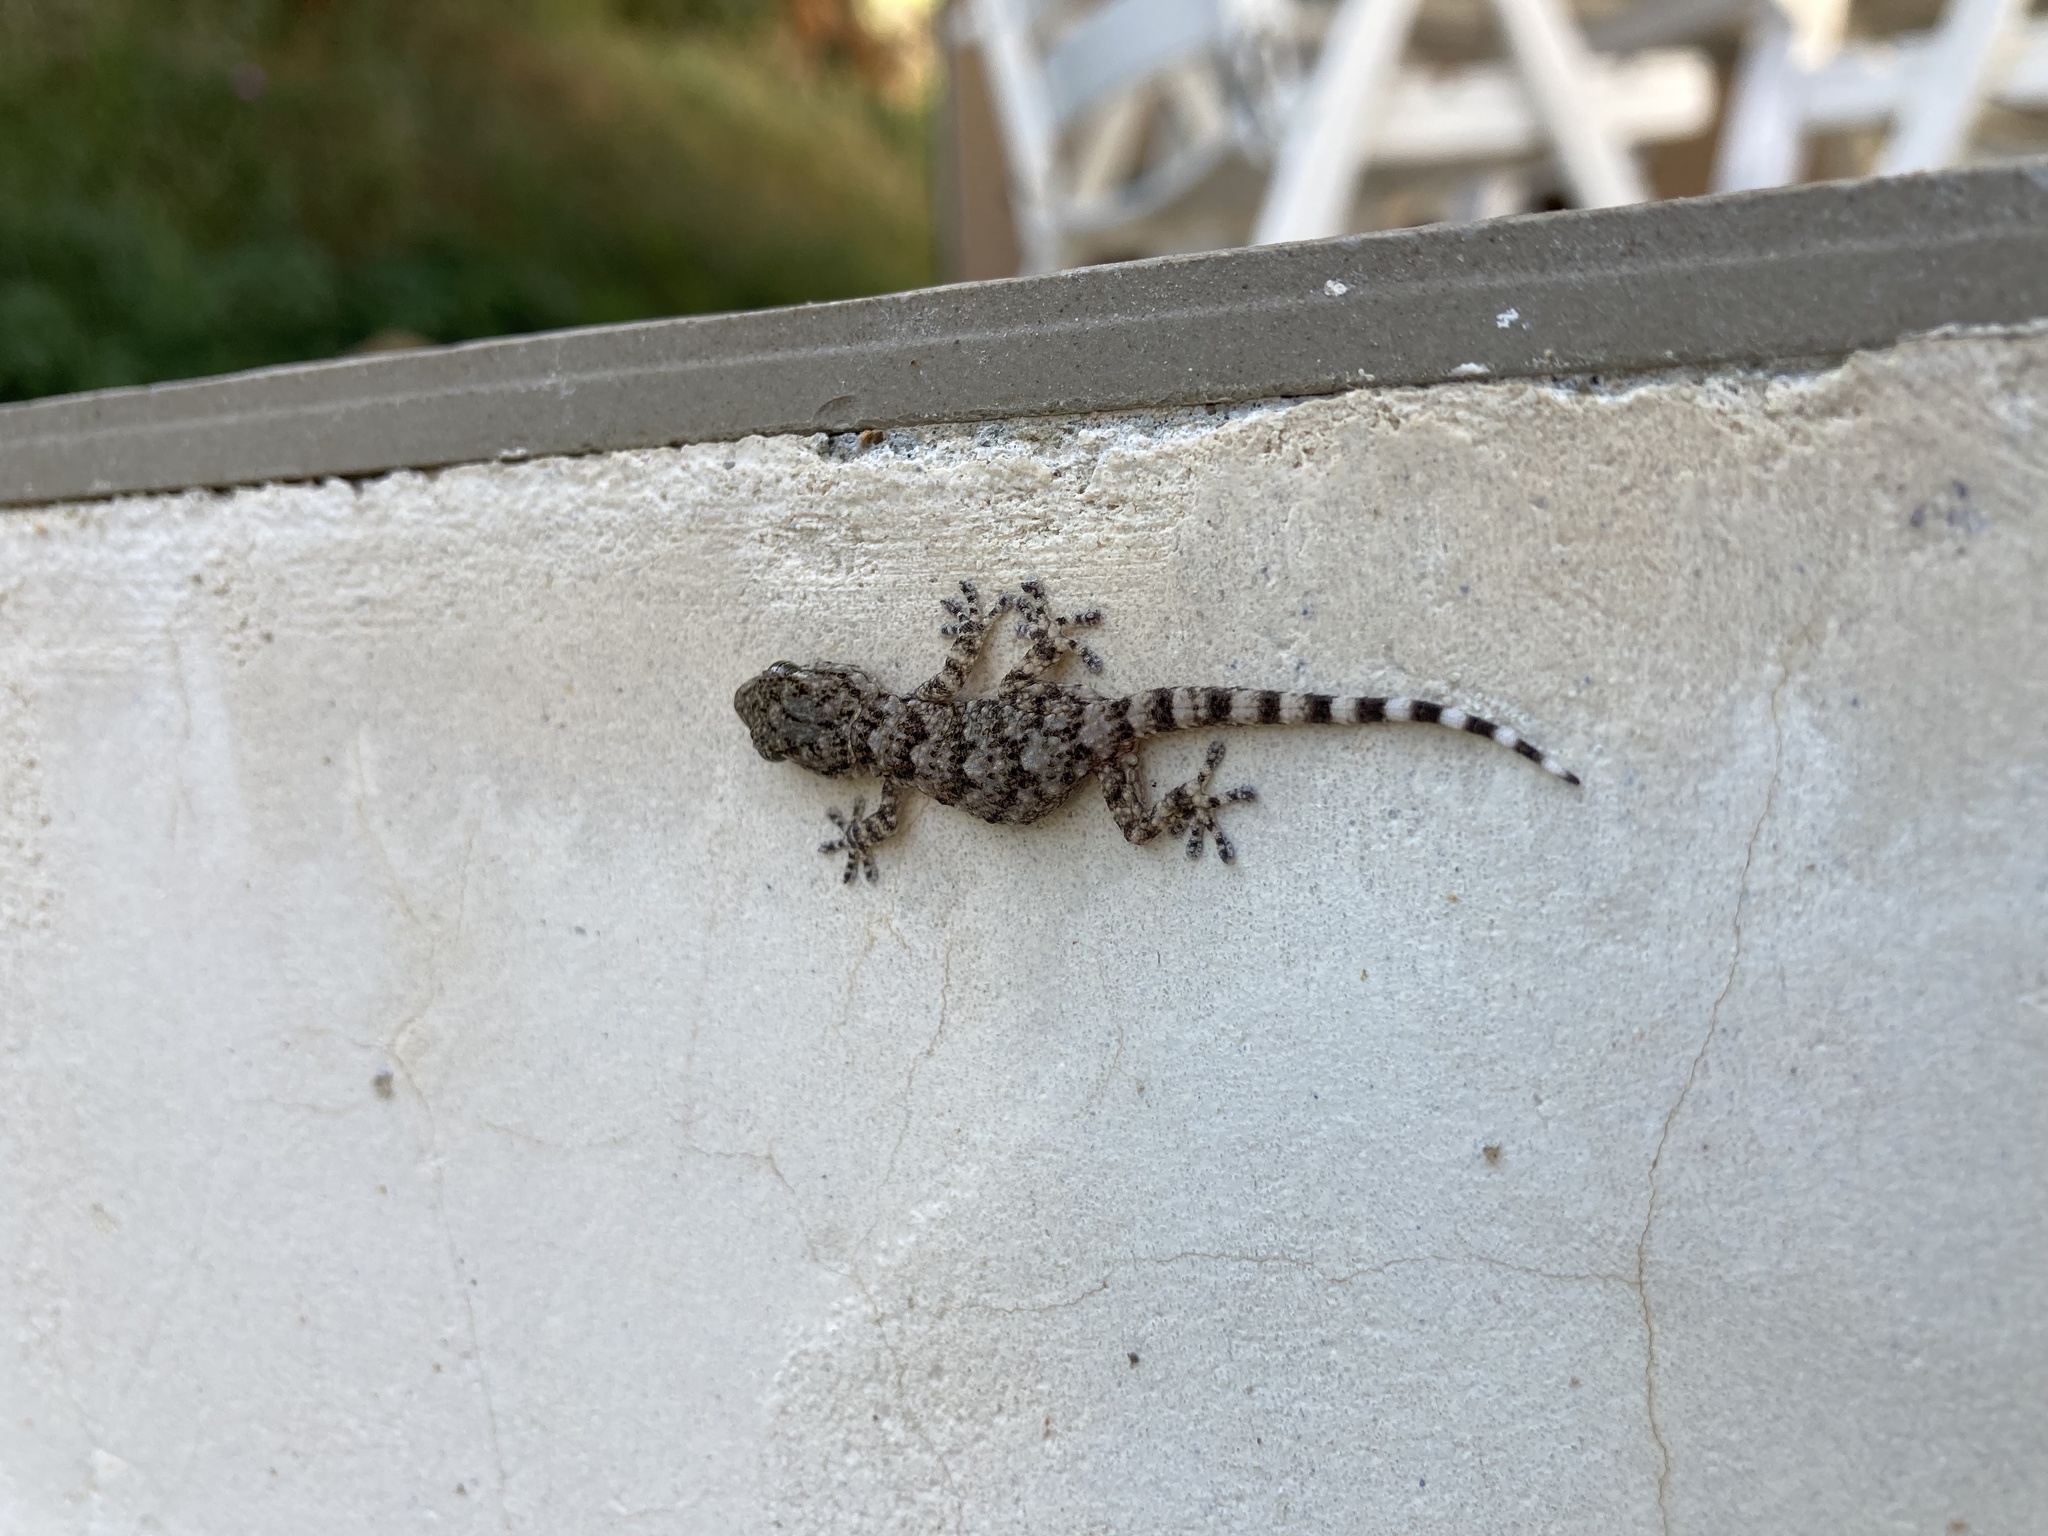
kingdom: Animalia
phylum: Chordata
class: Squamata
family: Phyllodactylidae
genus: Tarentola
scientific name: Tarentola mauritanica
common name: Moorish gecko
